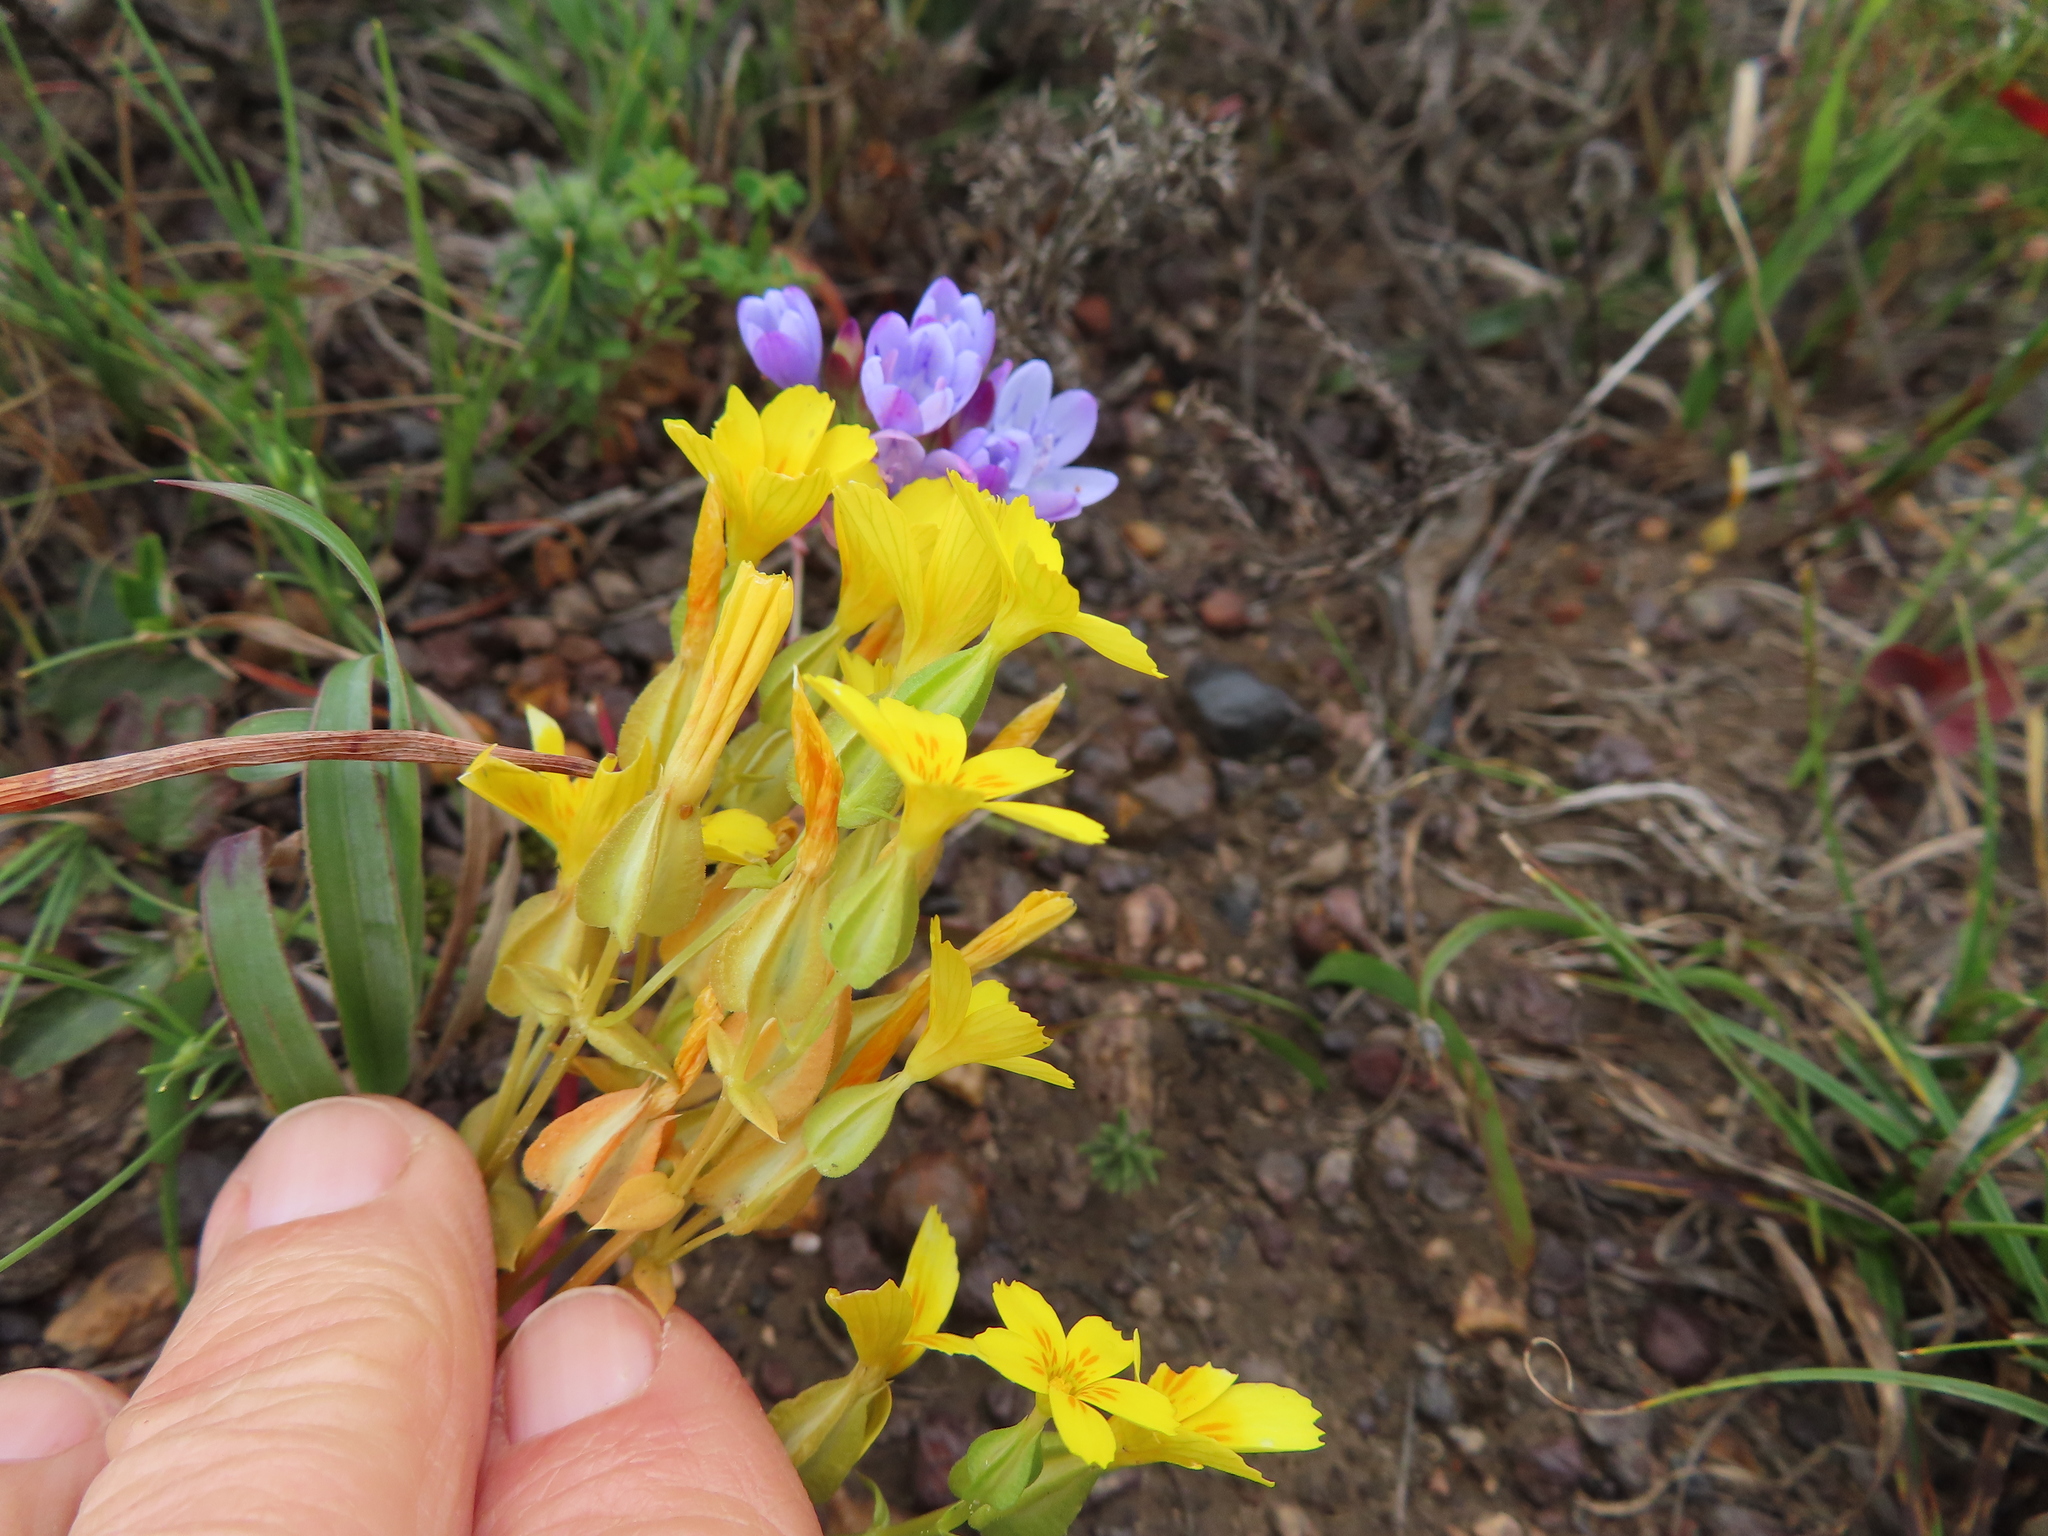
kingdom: Plantae
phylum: Tracheophyta
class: Magnoliopsida
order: Gentianales
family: Gentianaceae
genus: Sebaea
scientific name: Sebaea solaris
